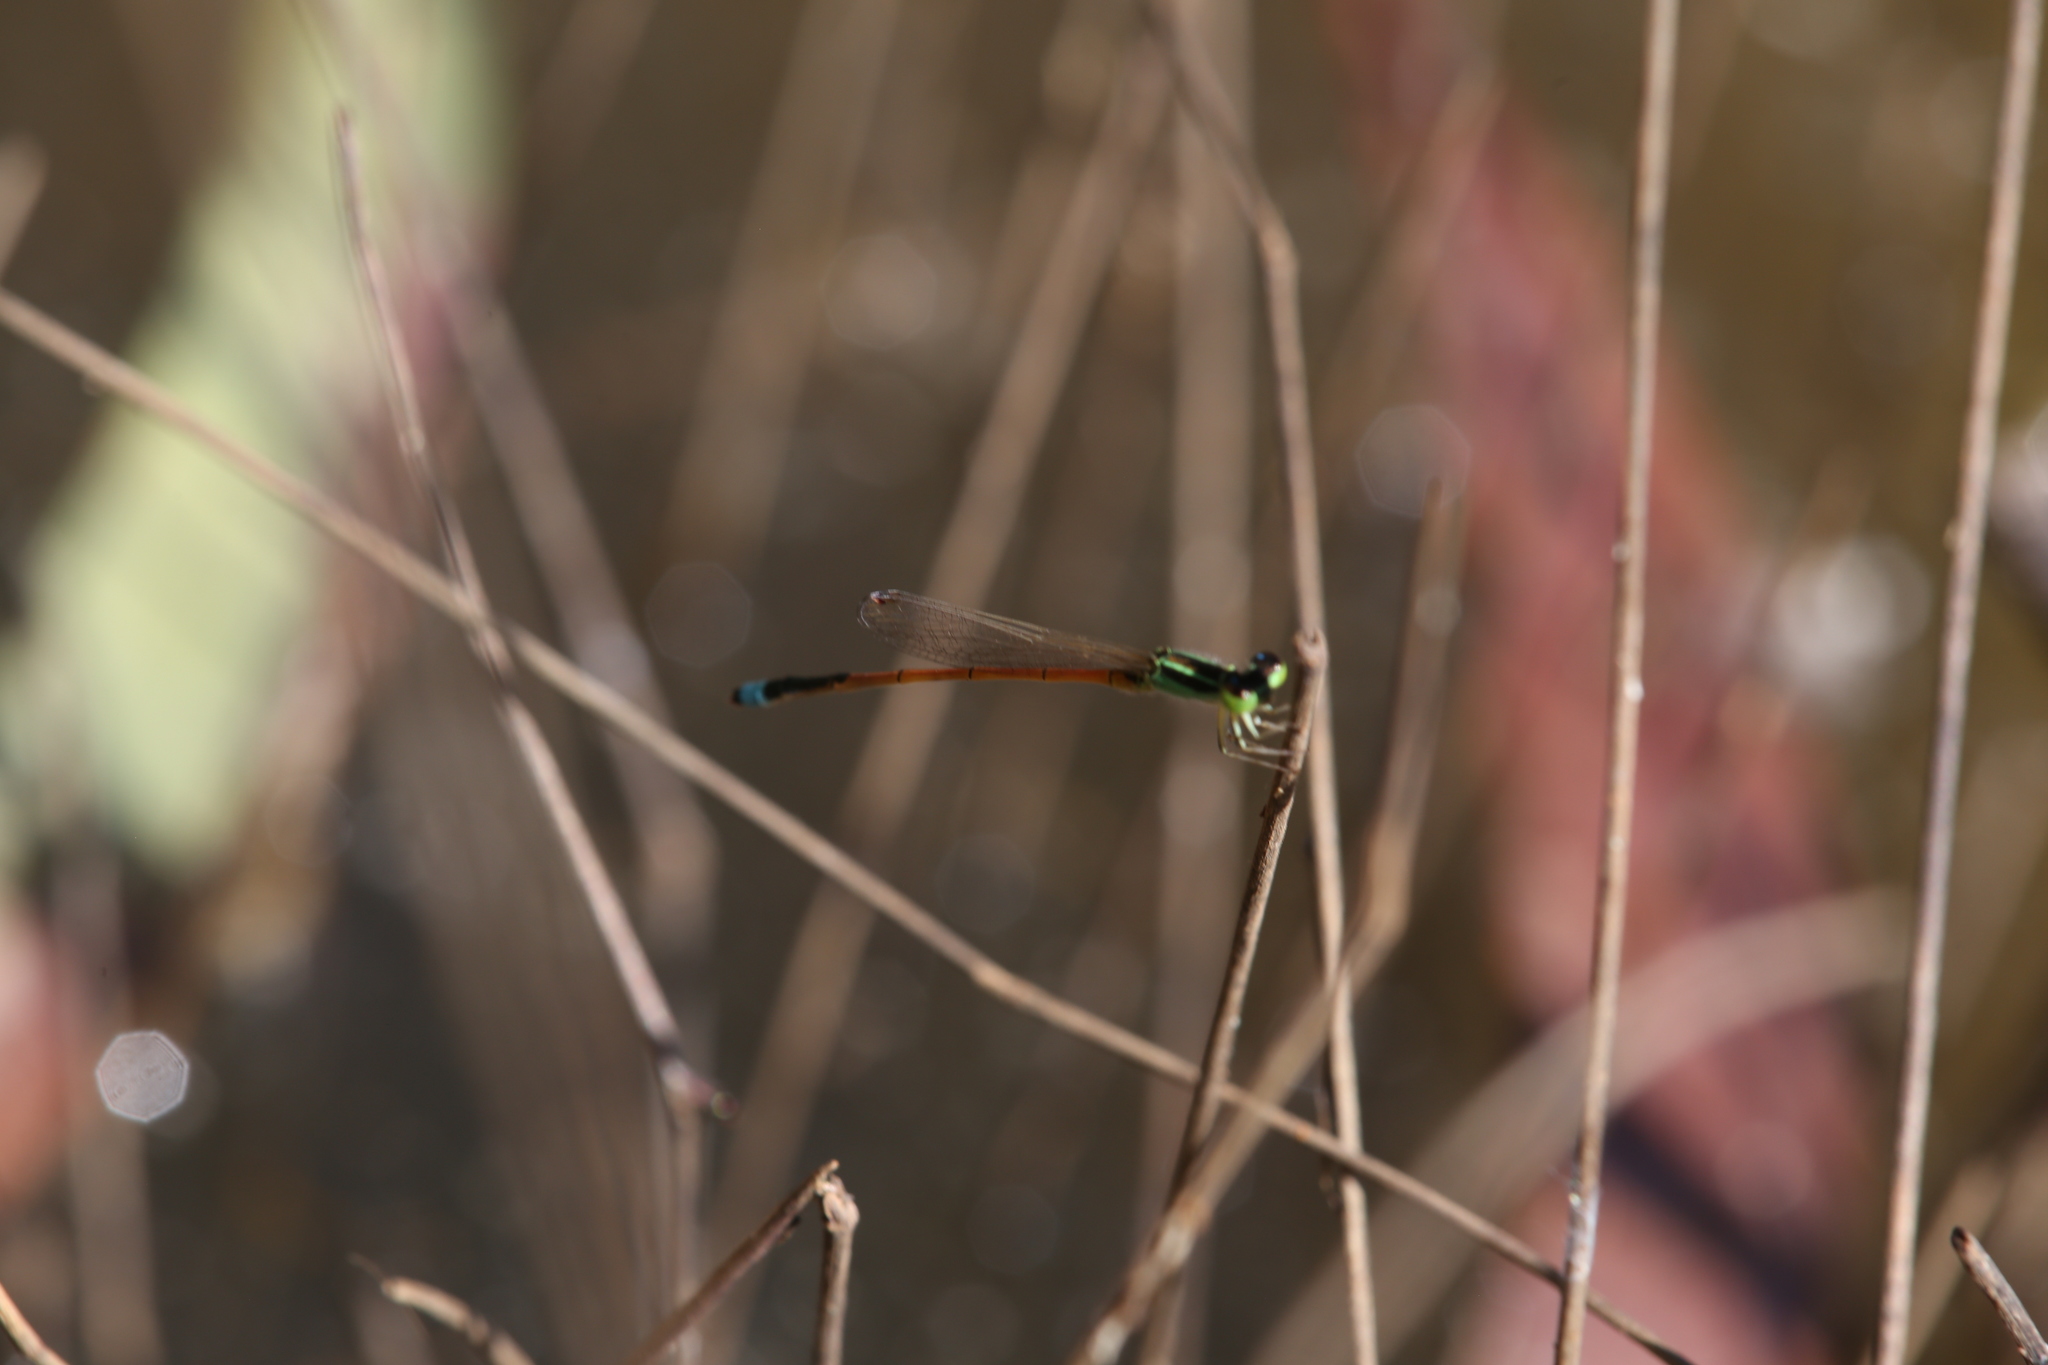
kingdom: Animalia
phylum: Arthropoda
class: Insecta
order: Odonata
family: Coenagrionidae
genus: Ischnura
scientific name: Ischnura aurora
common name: Gossamer damselfly
